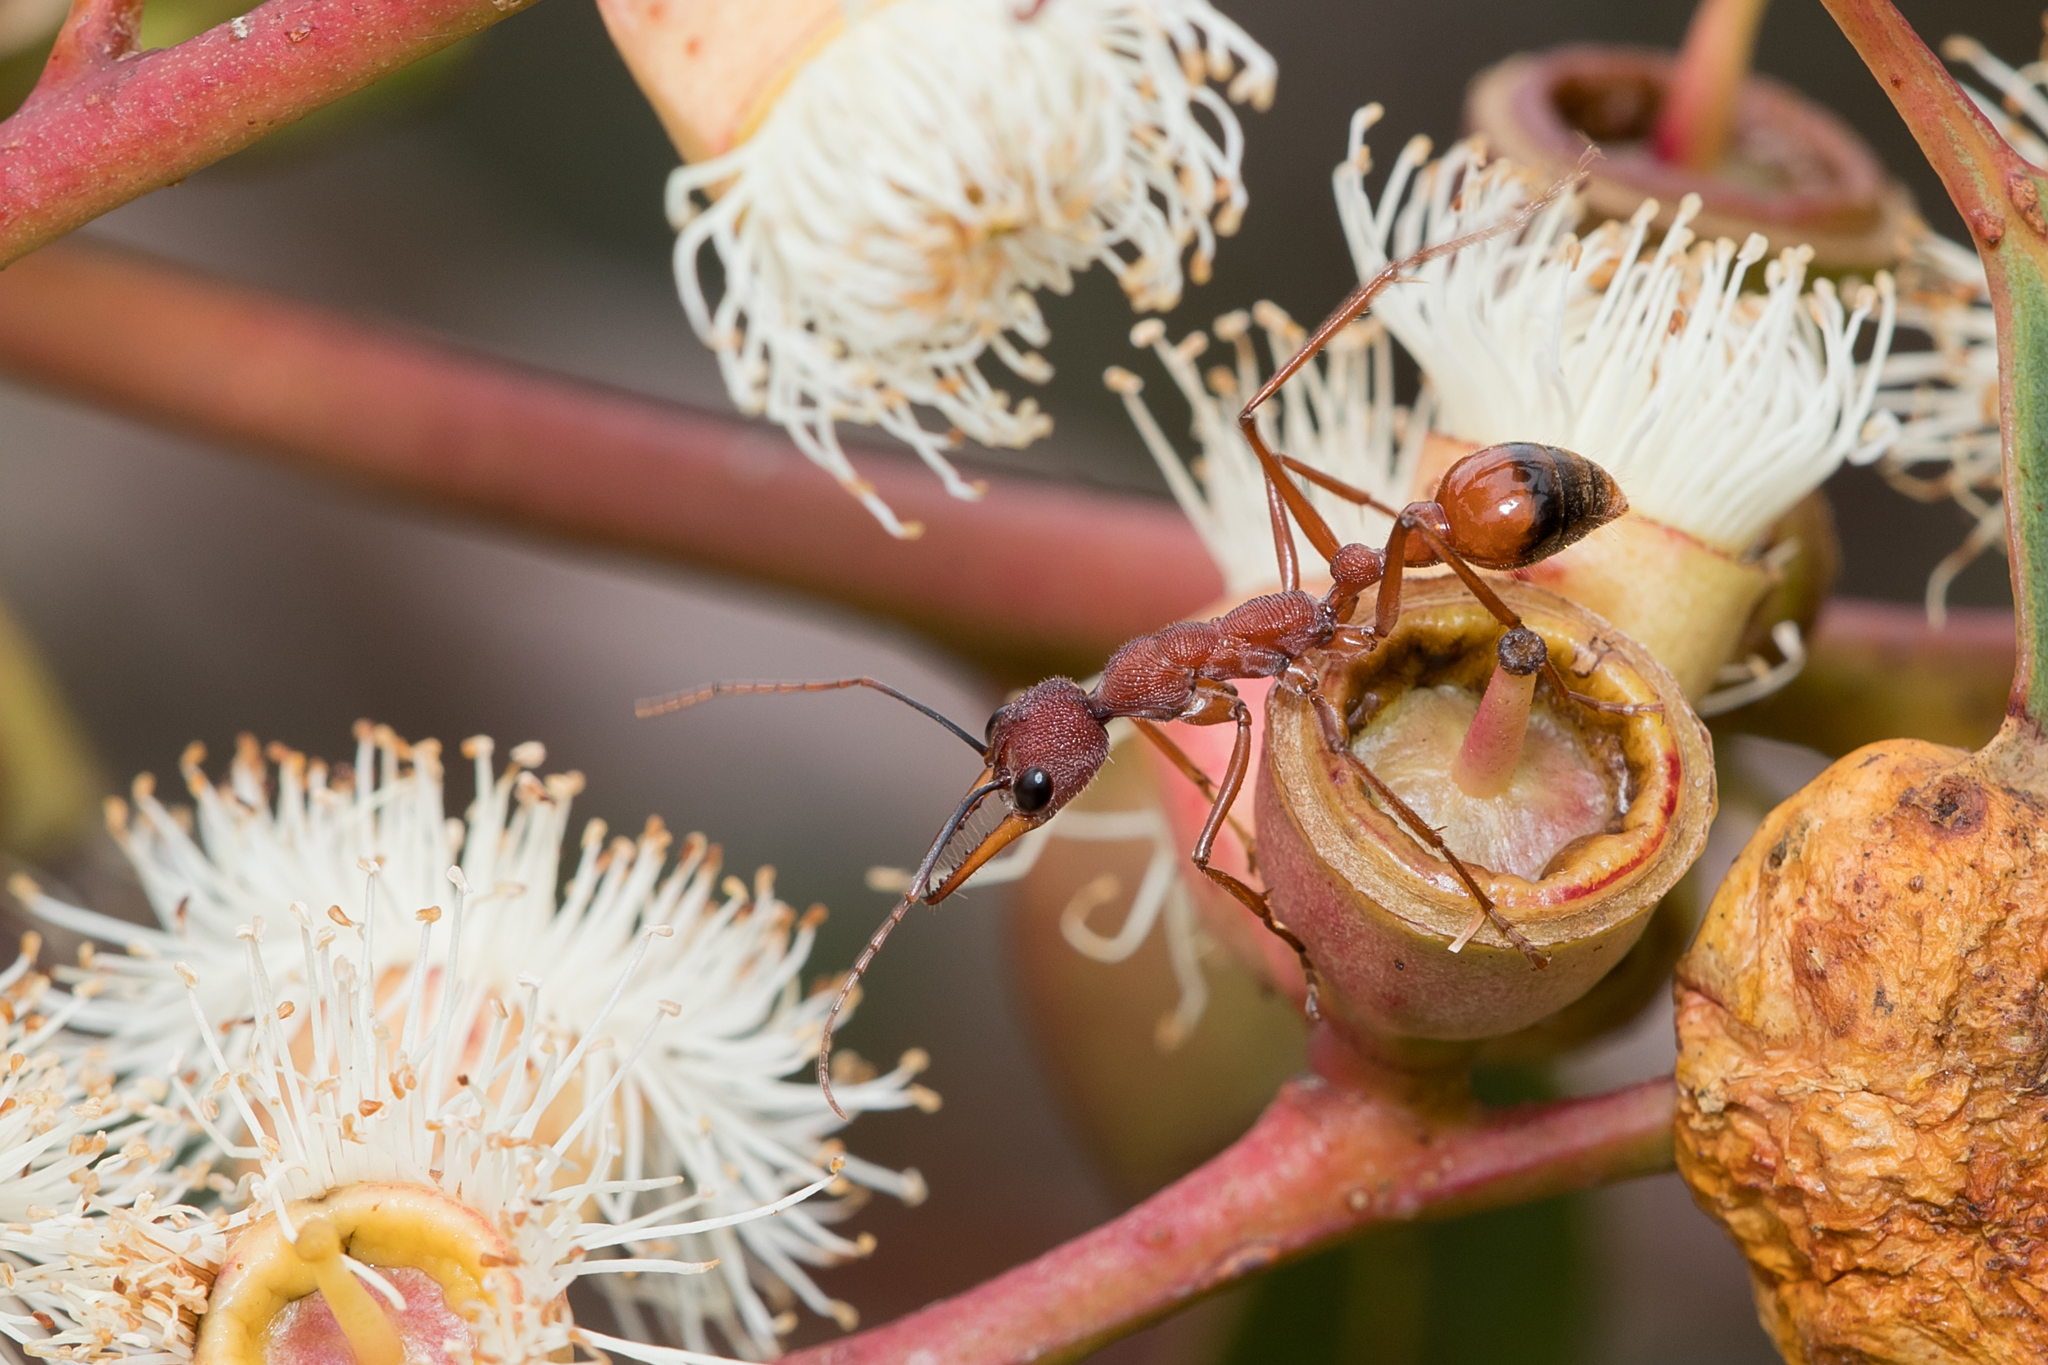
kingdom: Animalia
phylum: Arthropoda
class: Insecta
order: Hymenoptera
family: Formicidae
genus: Myrmecia
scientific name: Myrmecia nigriscapa
